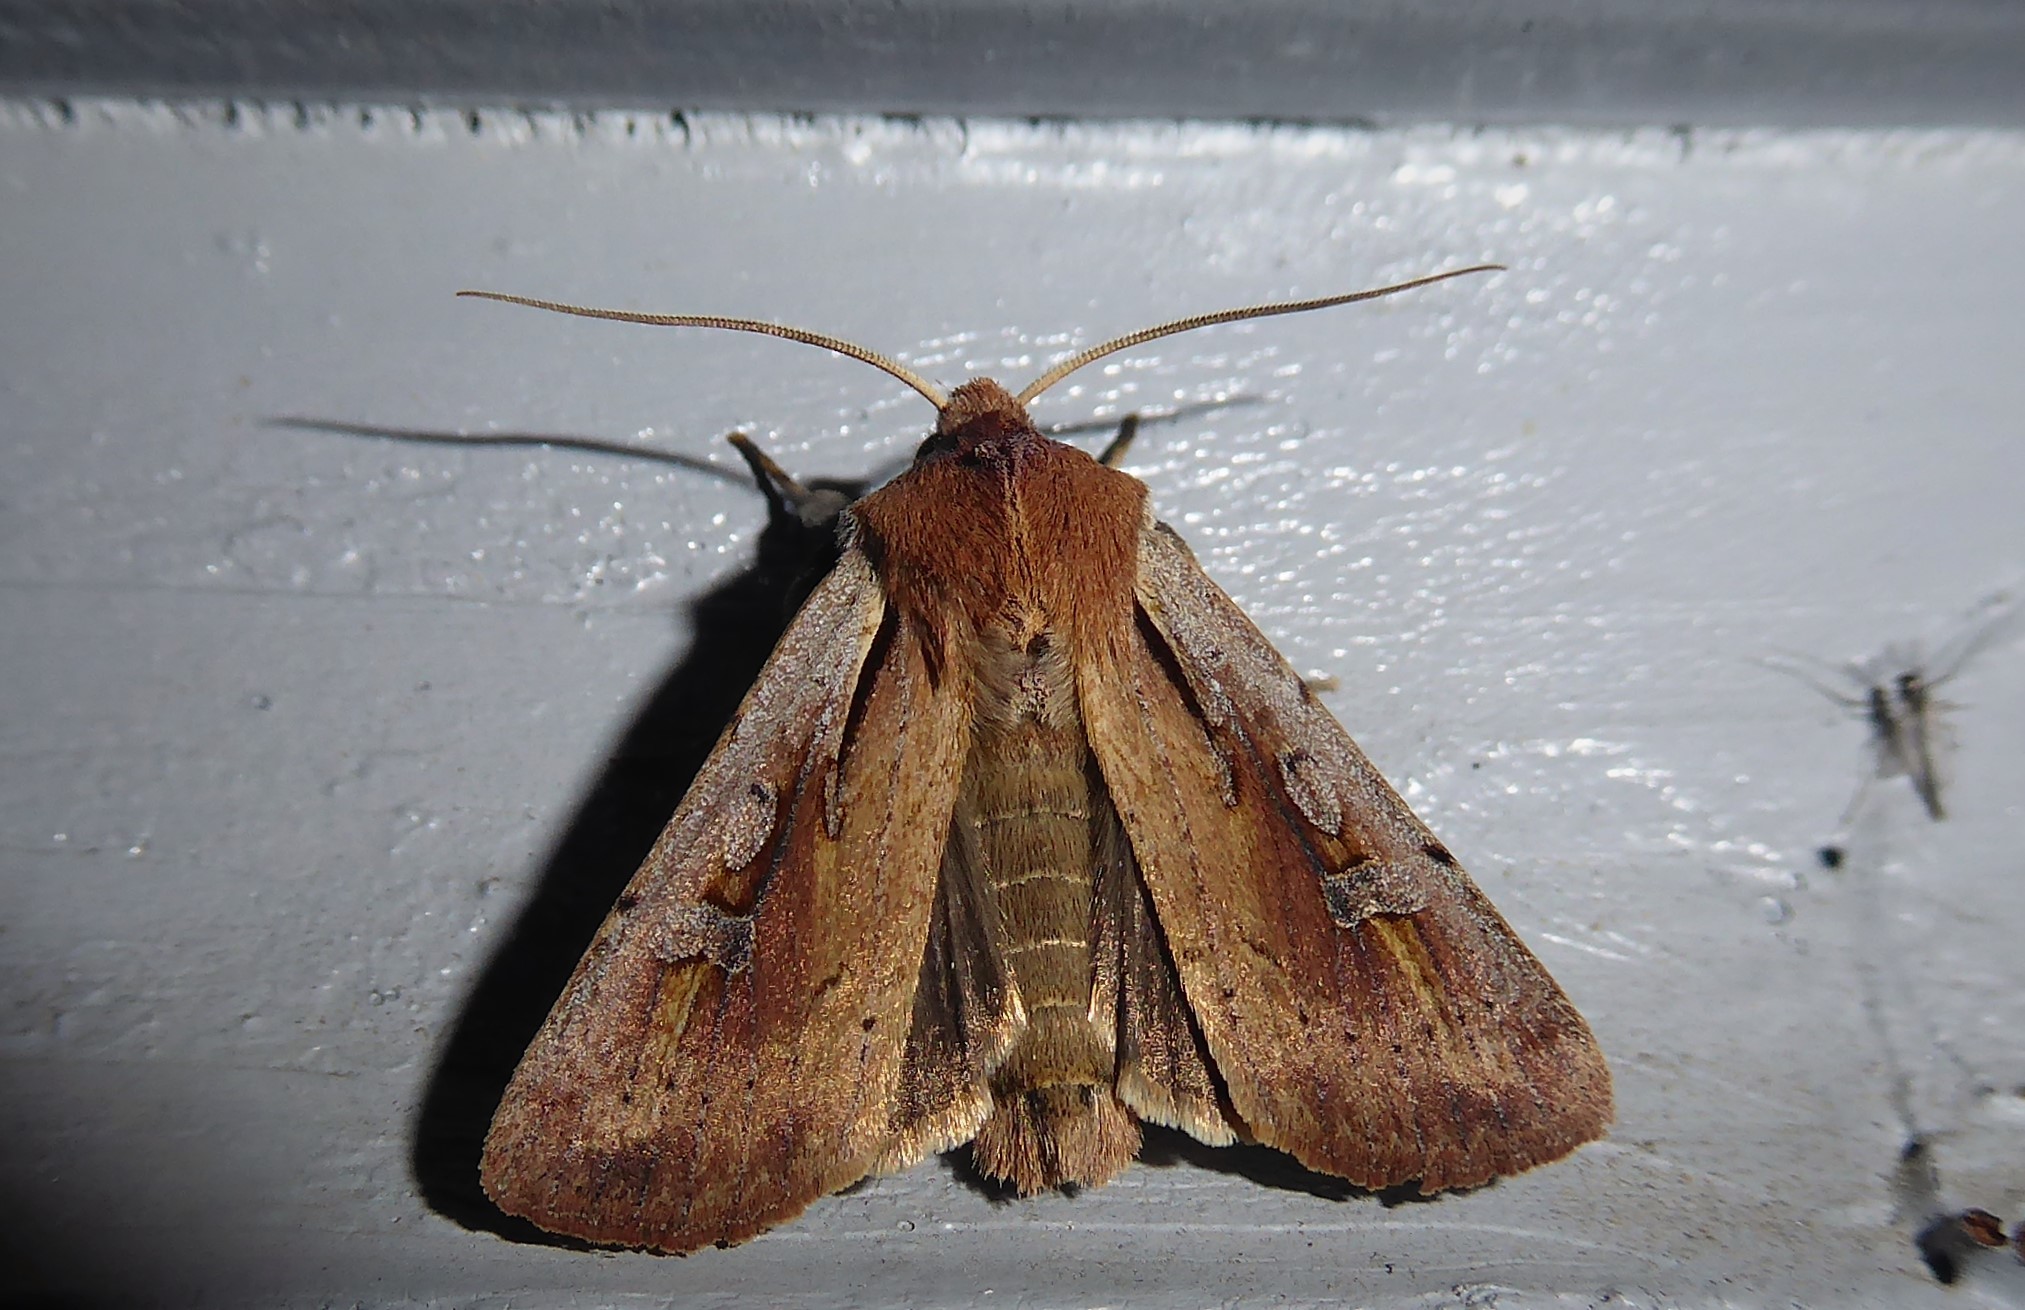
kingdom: Animalia
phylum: Arthropoda
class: Insecta
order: Lepidoptera
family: Noctuidae
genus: Ichneutica
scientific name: Ichneutica atristriga
